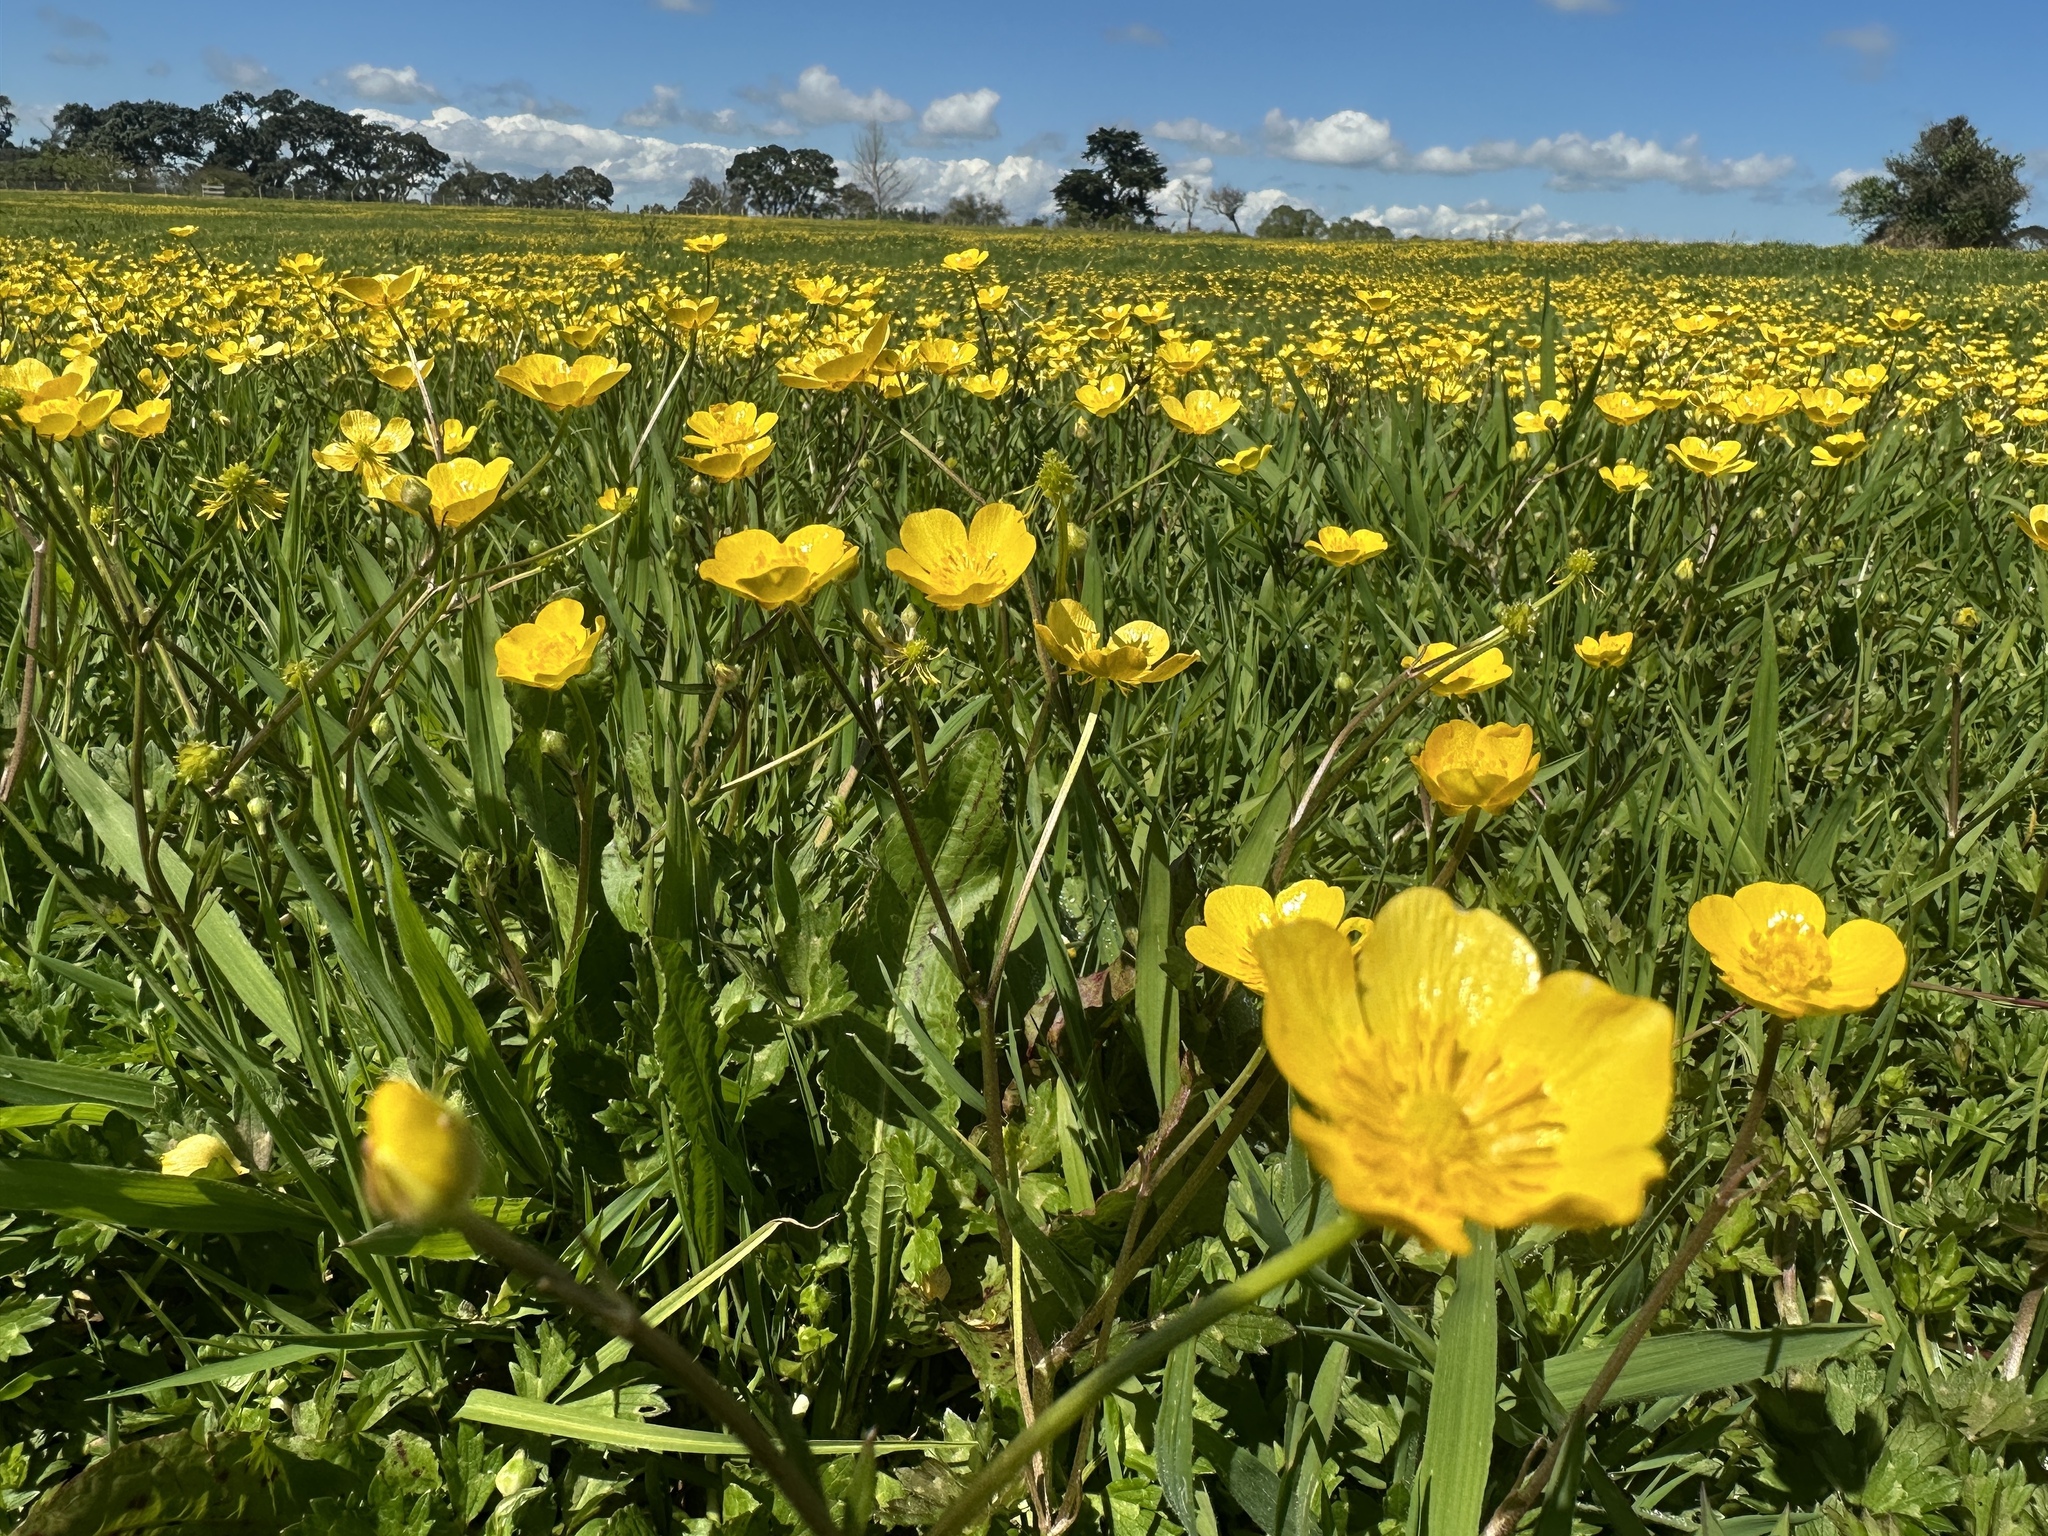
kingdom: Plantae
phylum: Tracheophyta
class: Magnoliopsida
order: Ranunculales
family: Ranunculaceae
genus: Ranunculus
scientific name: Ranunculus repens
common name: Creeping buttercup
